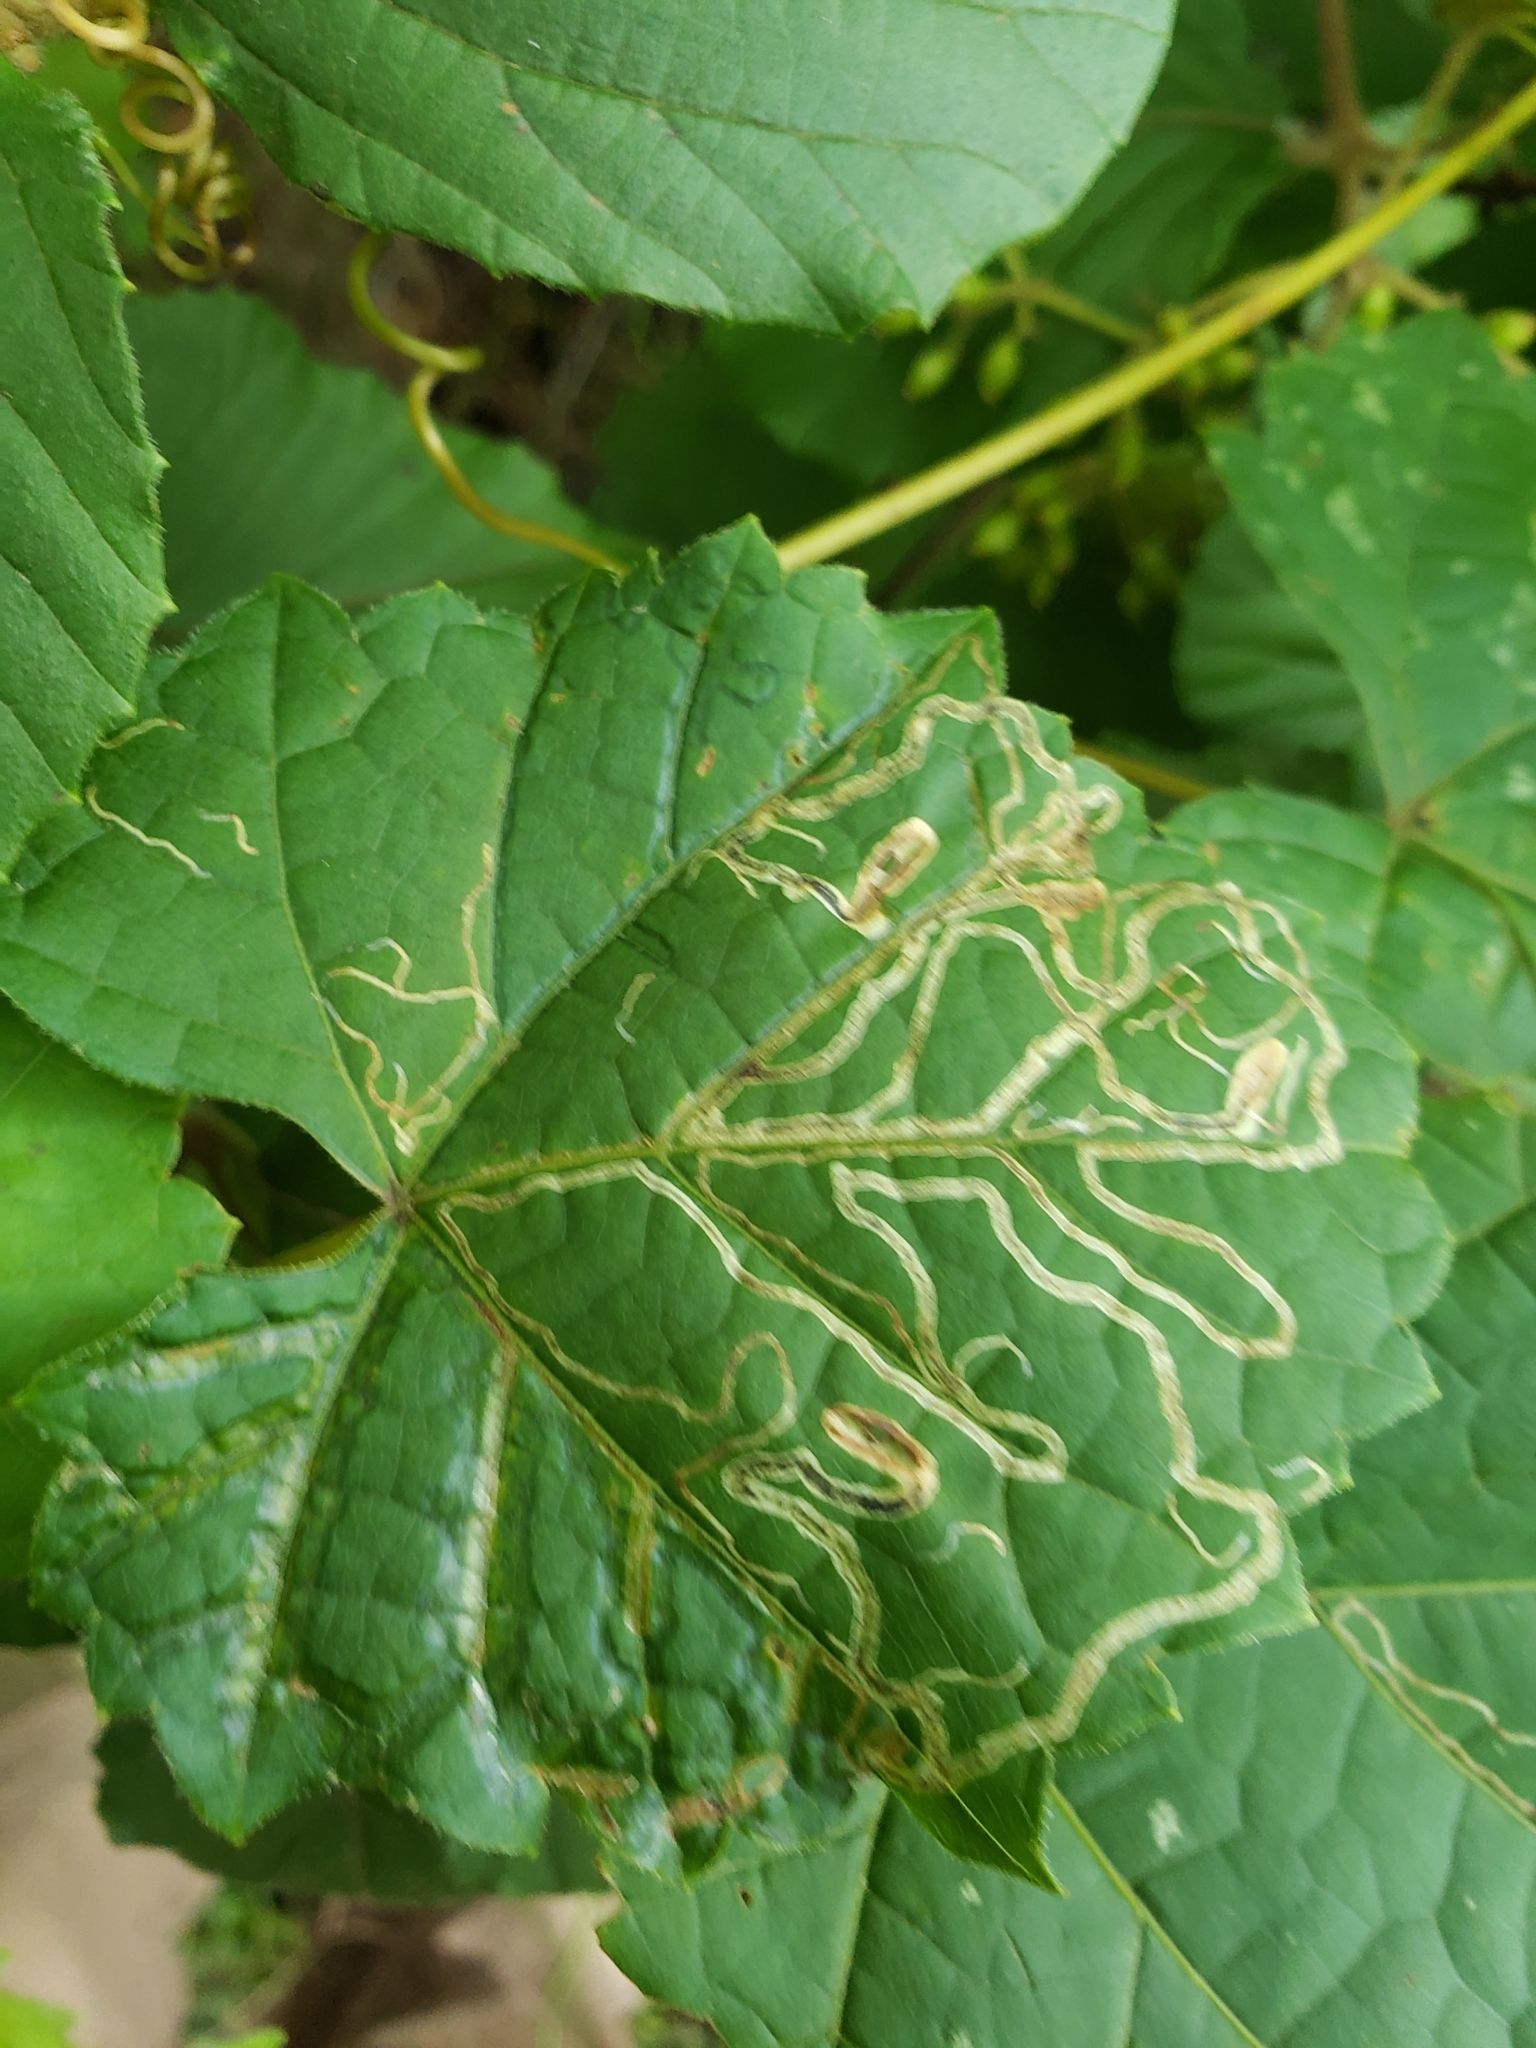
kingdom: Animalia
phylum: Arthropoda
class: Insecta
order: Lepidoptera
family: Gracillariidae
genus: Phyllocnistis
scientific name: Phyllocnistis vitifoliella
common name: Grape leaf-miner moth
